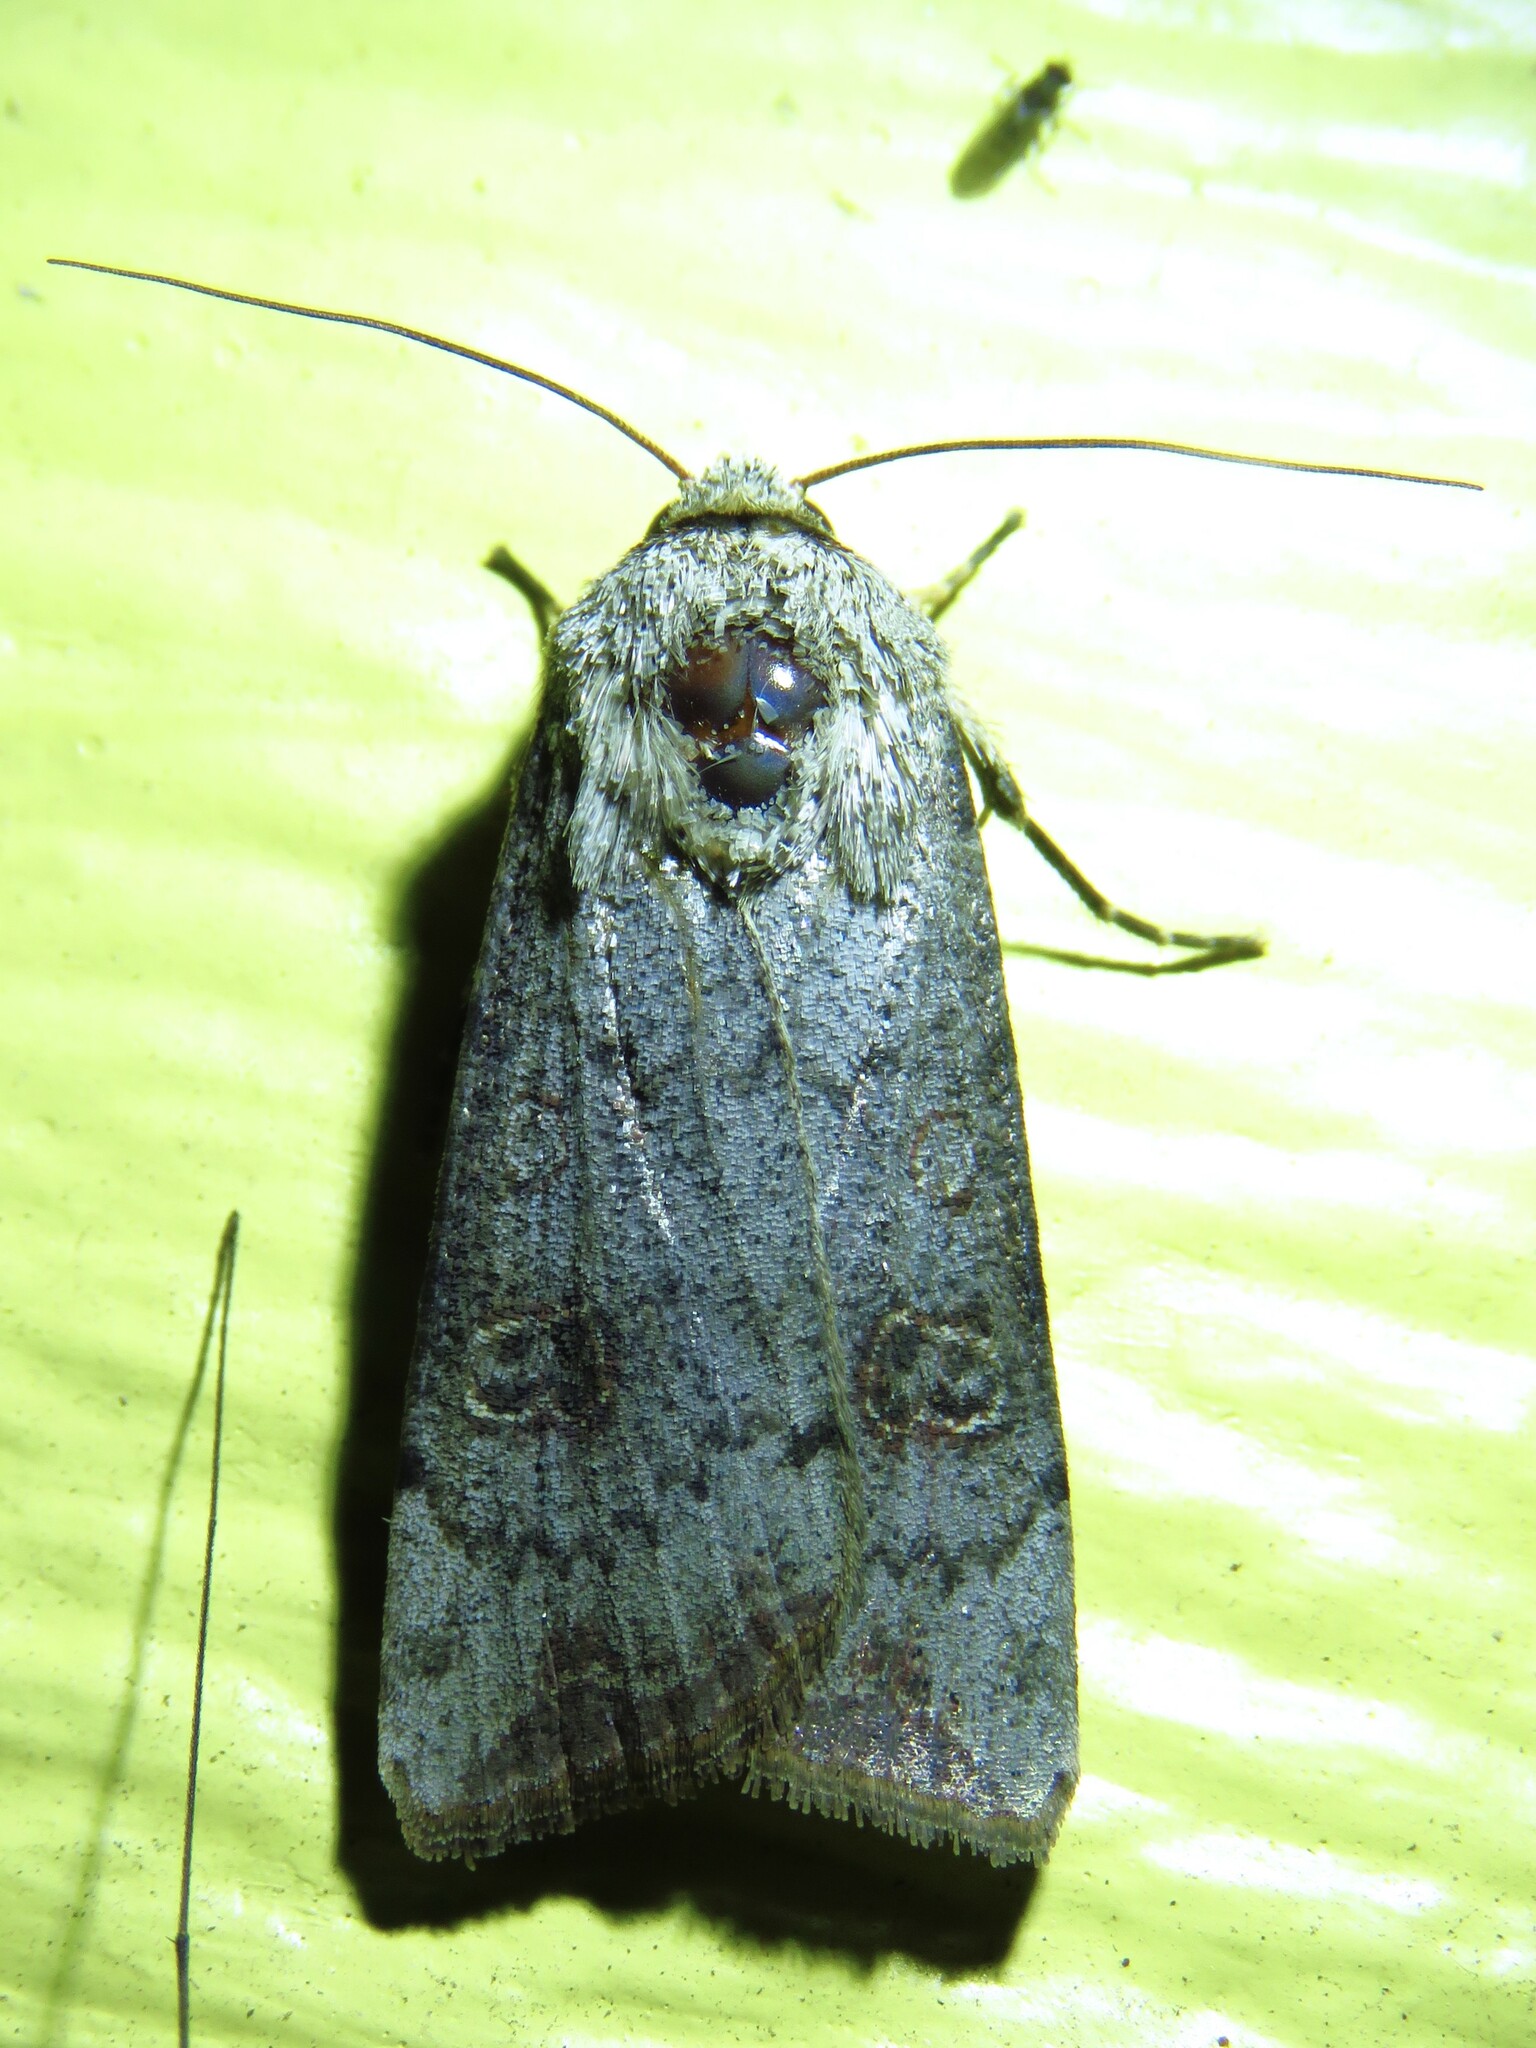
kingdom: Animalia
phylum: Arthropoda
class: Insecta
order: Lepidoptera
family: Noctuidae
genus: Anicla
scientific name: Anicla infecta
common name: Green cutworm
